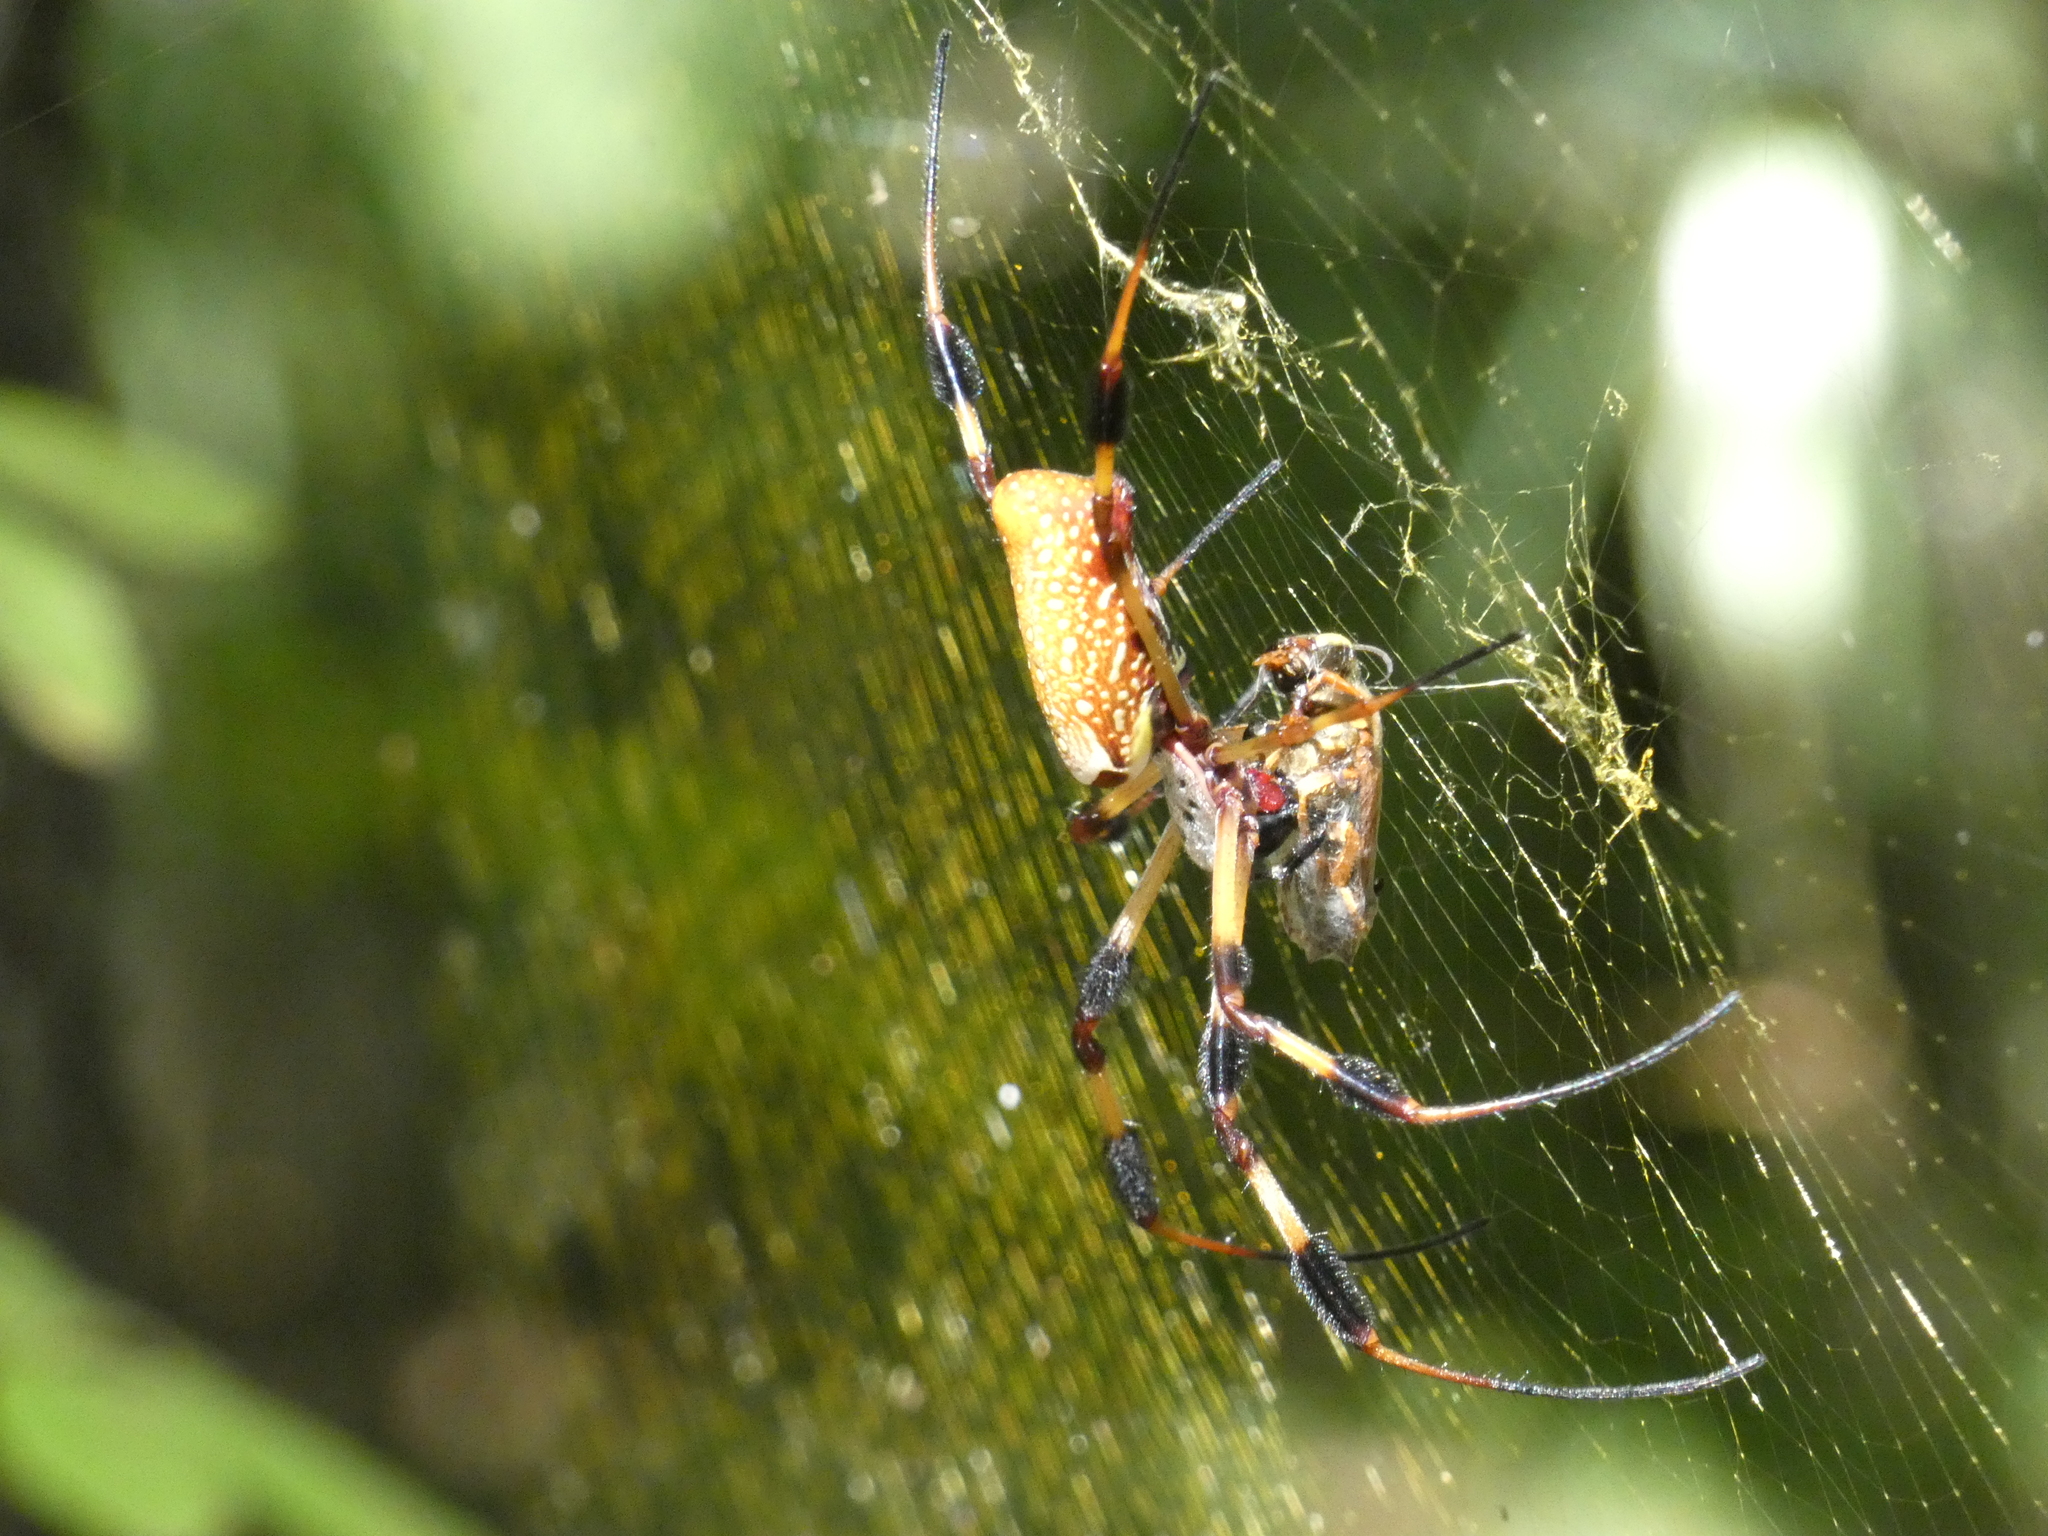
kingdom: Animalia
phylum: Arthropoda
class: Arachnida
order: Araneae
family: Araneidae
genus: Trichonephila
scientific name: Trichonephila clavipes
